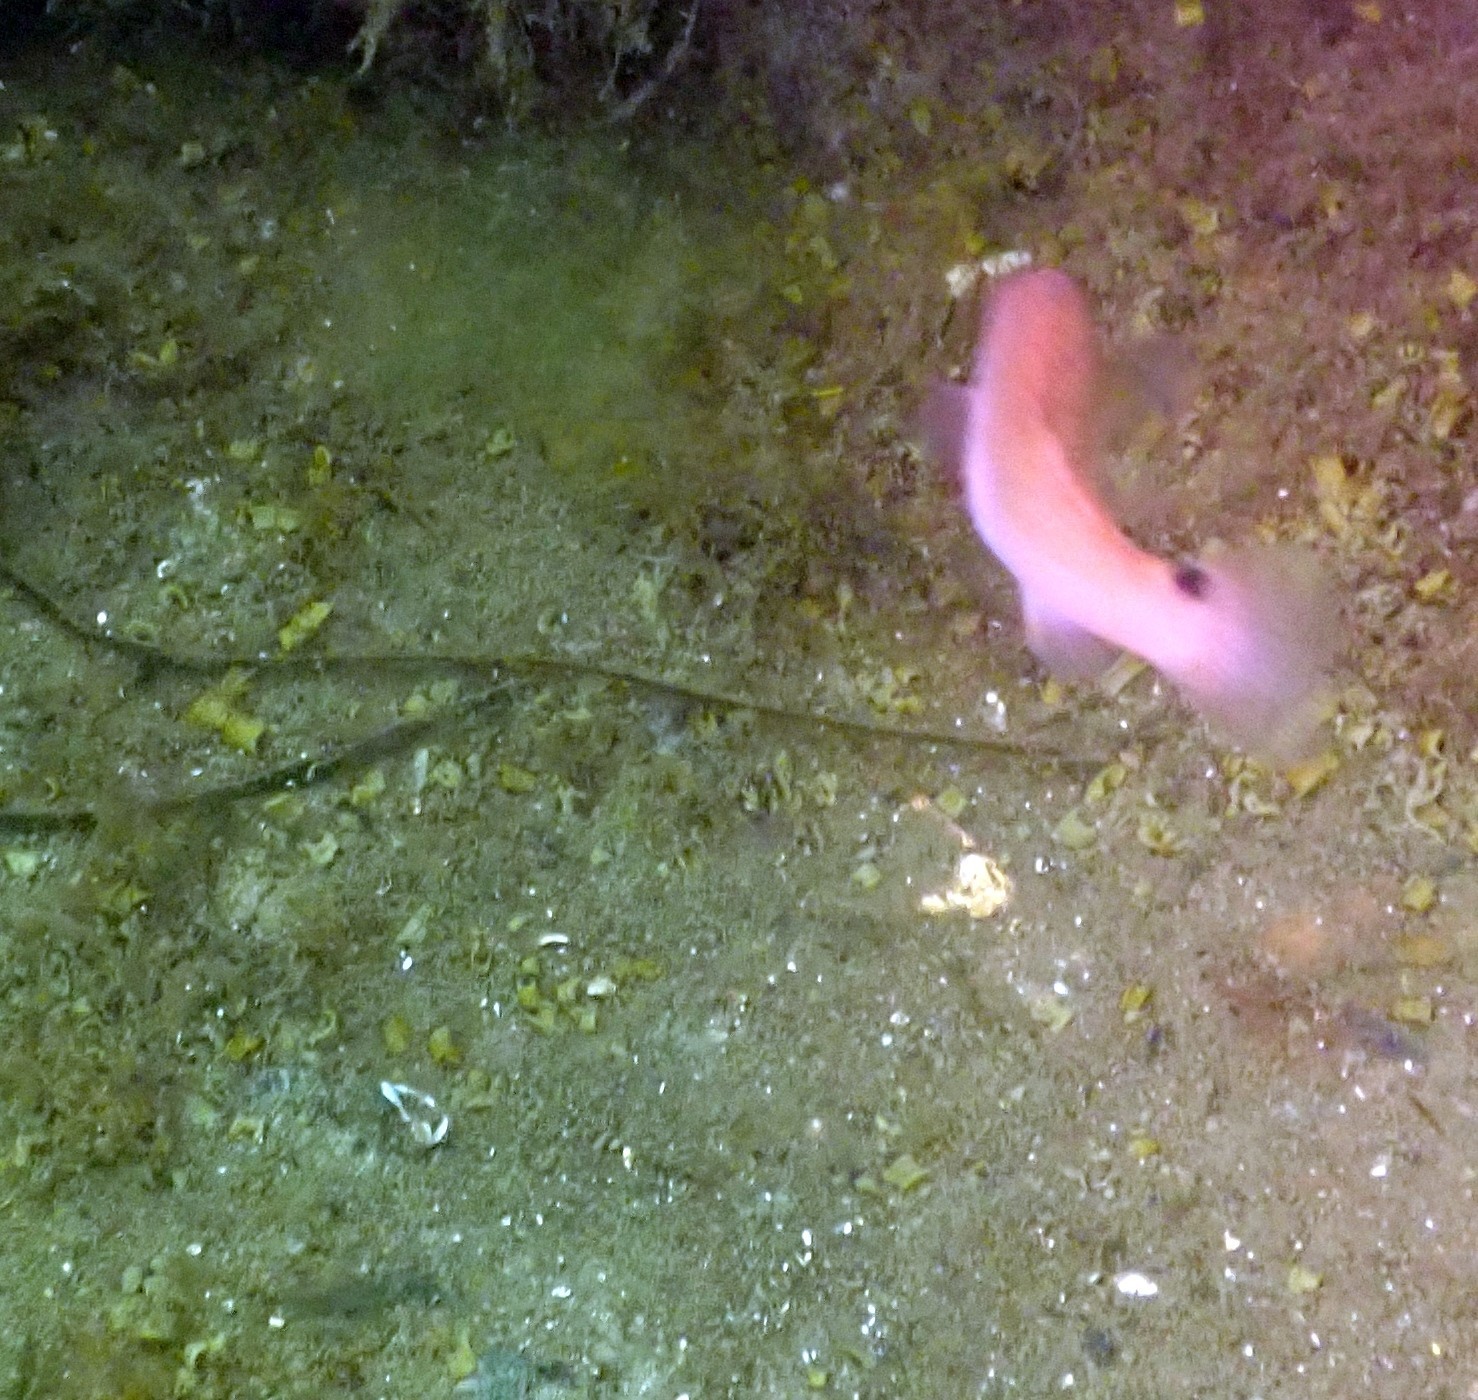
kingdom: Animalia
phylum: Chordata
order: Perciformes
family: Labridae
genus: Ctenolabrus
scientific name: Ctenolabrus rupestris
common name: Goldsinny
